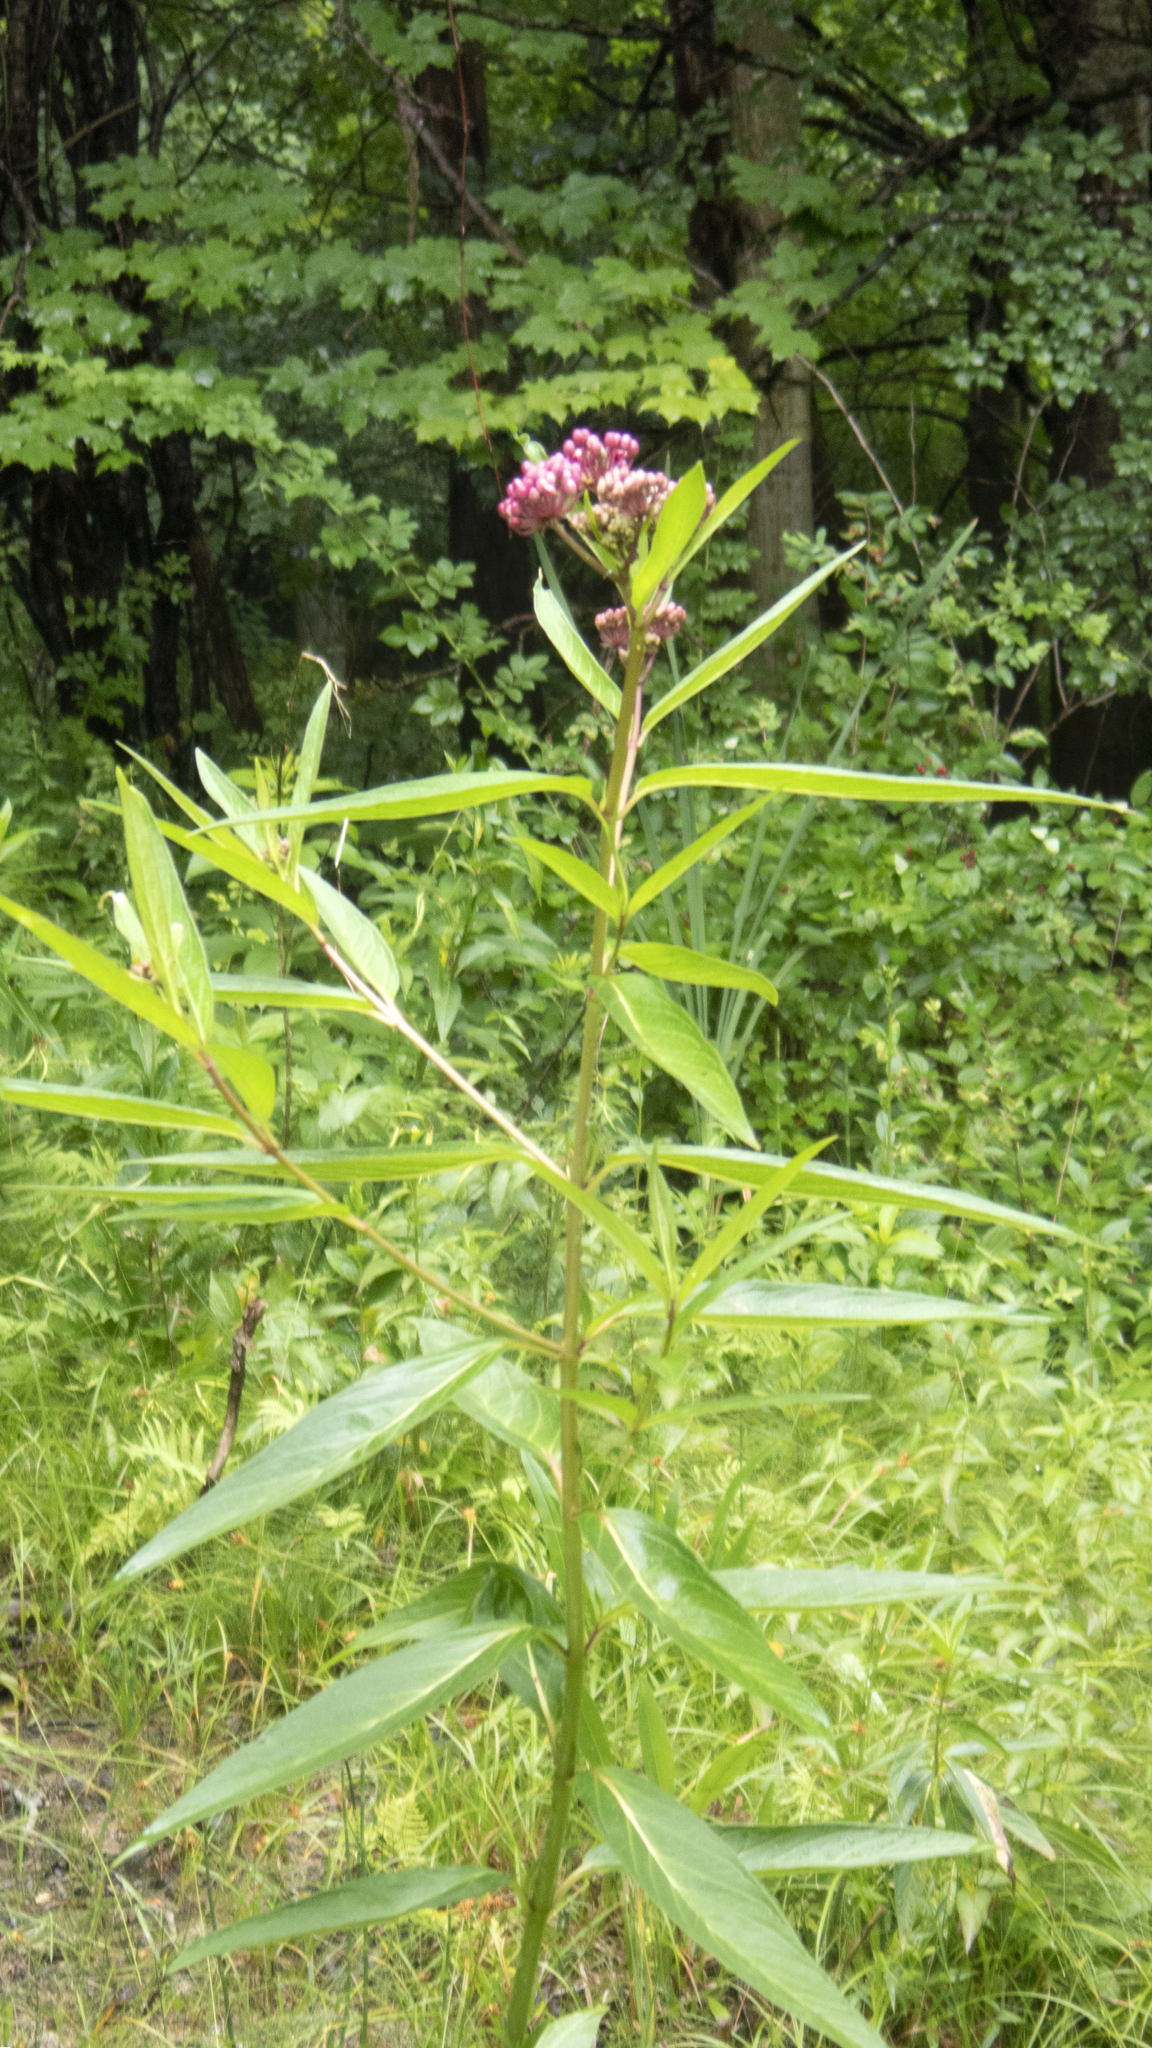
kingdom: Plantae
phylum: Tracheophyta
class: Magnoliopsida
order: Gentianales
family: Apocynaceae
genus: Asclepias
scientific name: Asclepias incarnata
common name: Swamp milkweed
